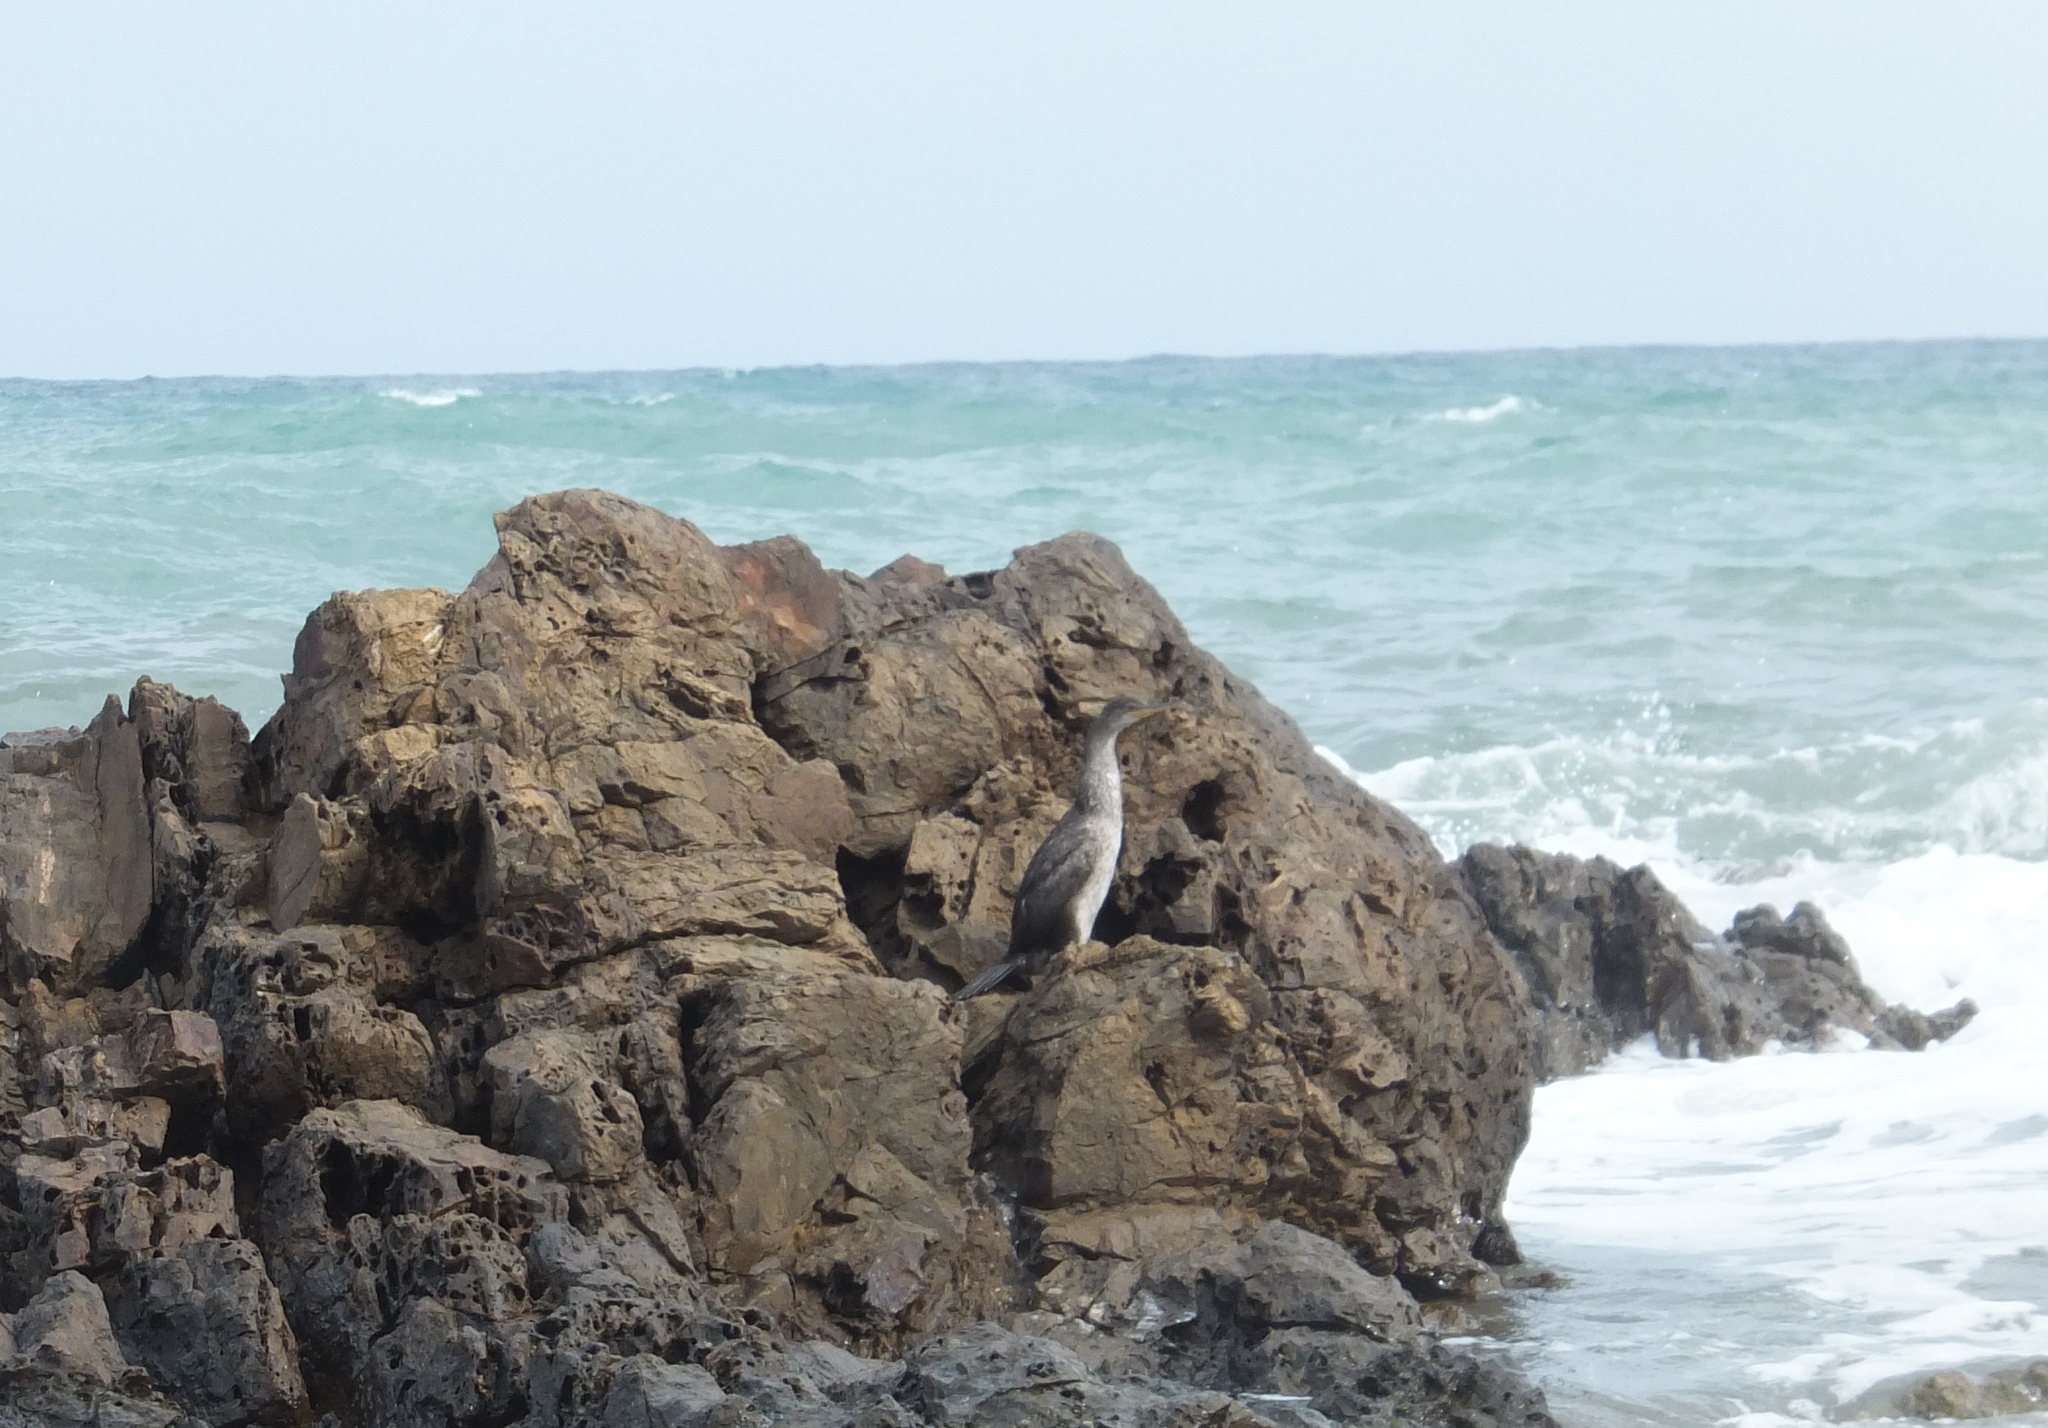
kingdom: Animalia
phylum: Chordata
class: Aves
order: Suliformes
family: Phalacrocoracidae
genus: Phalacrocorax
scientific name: Phalacrocorax aristotelis
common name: European shag
